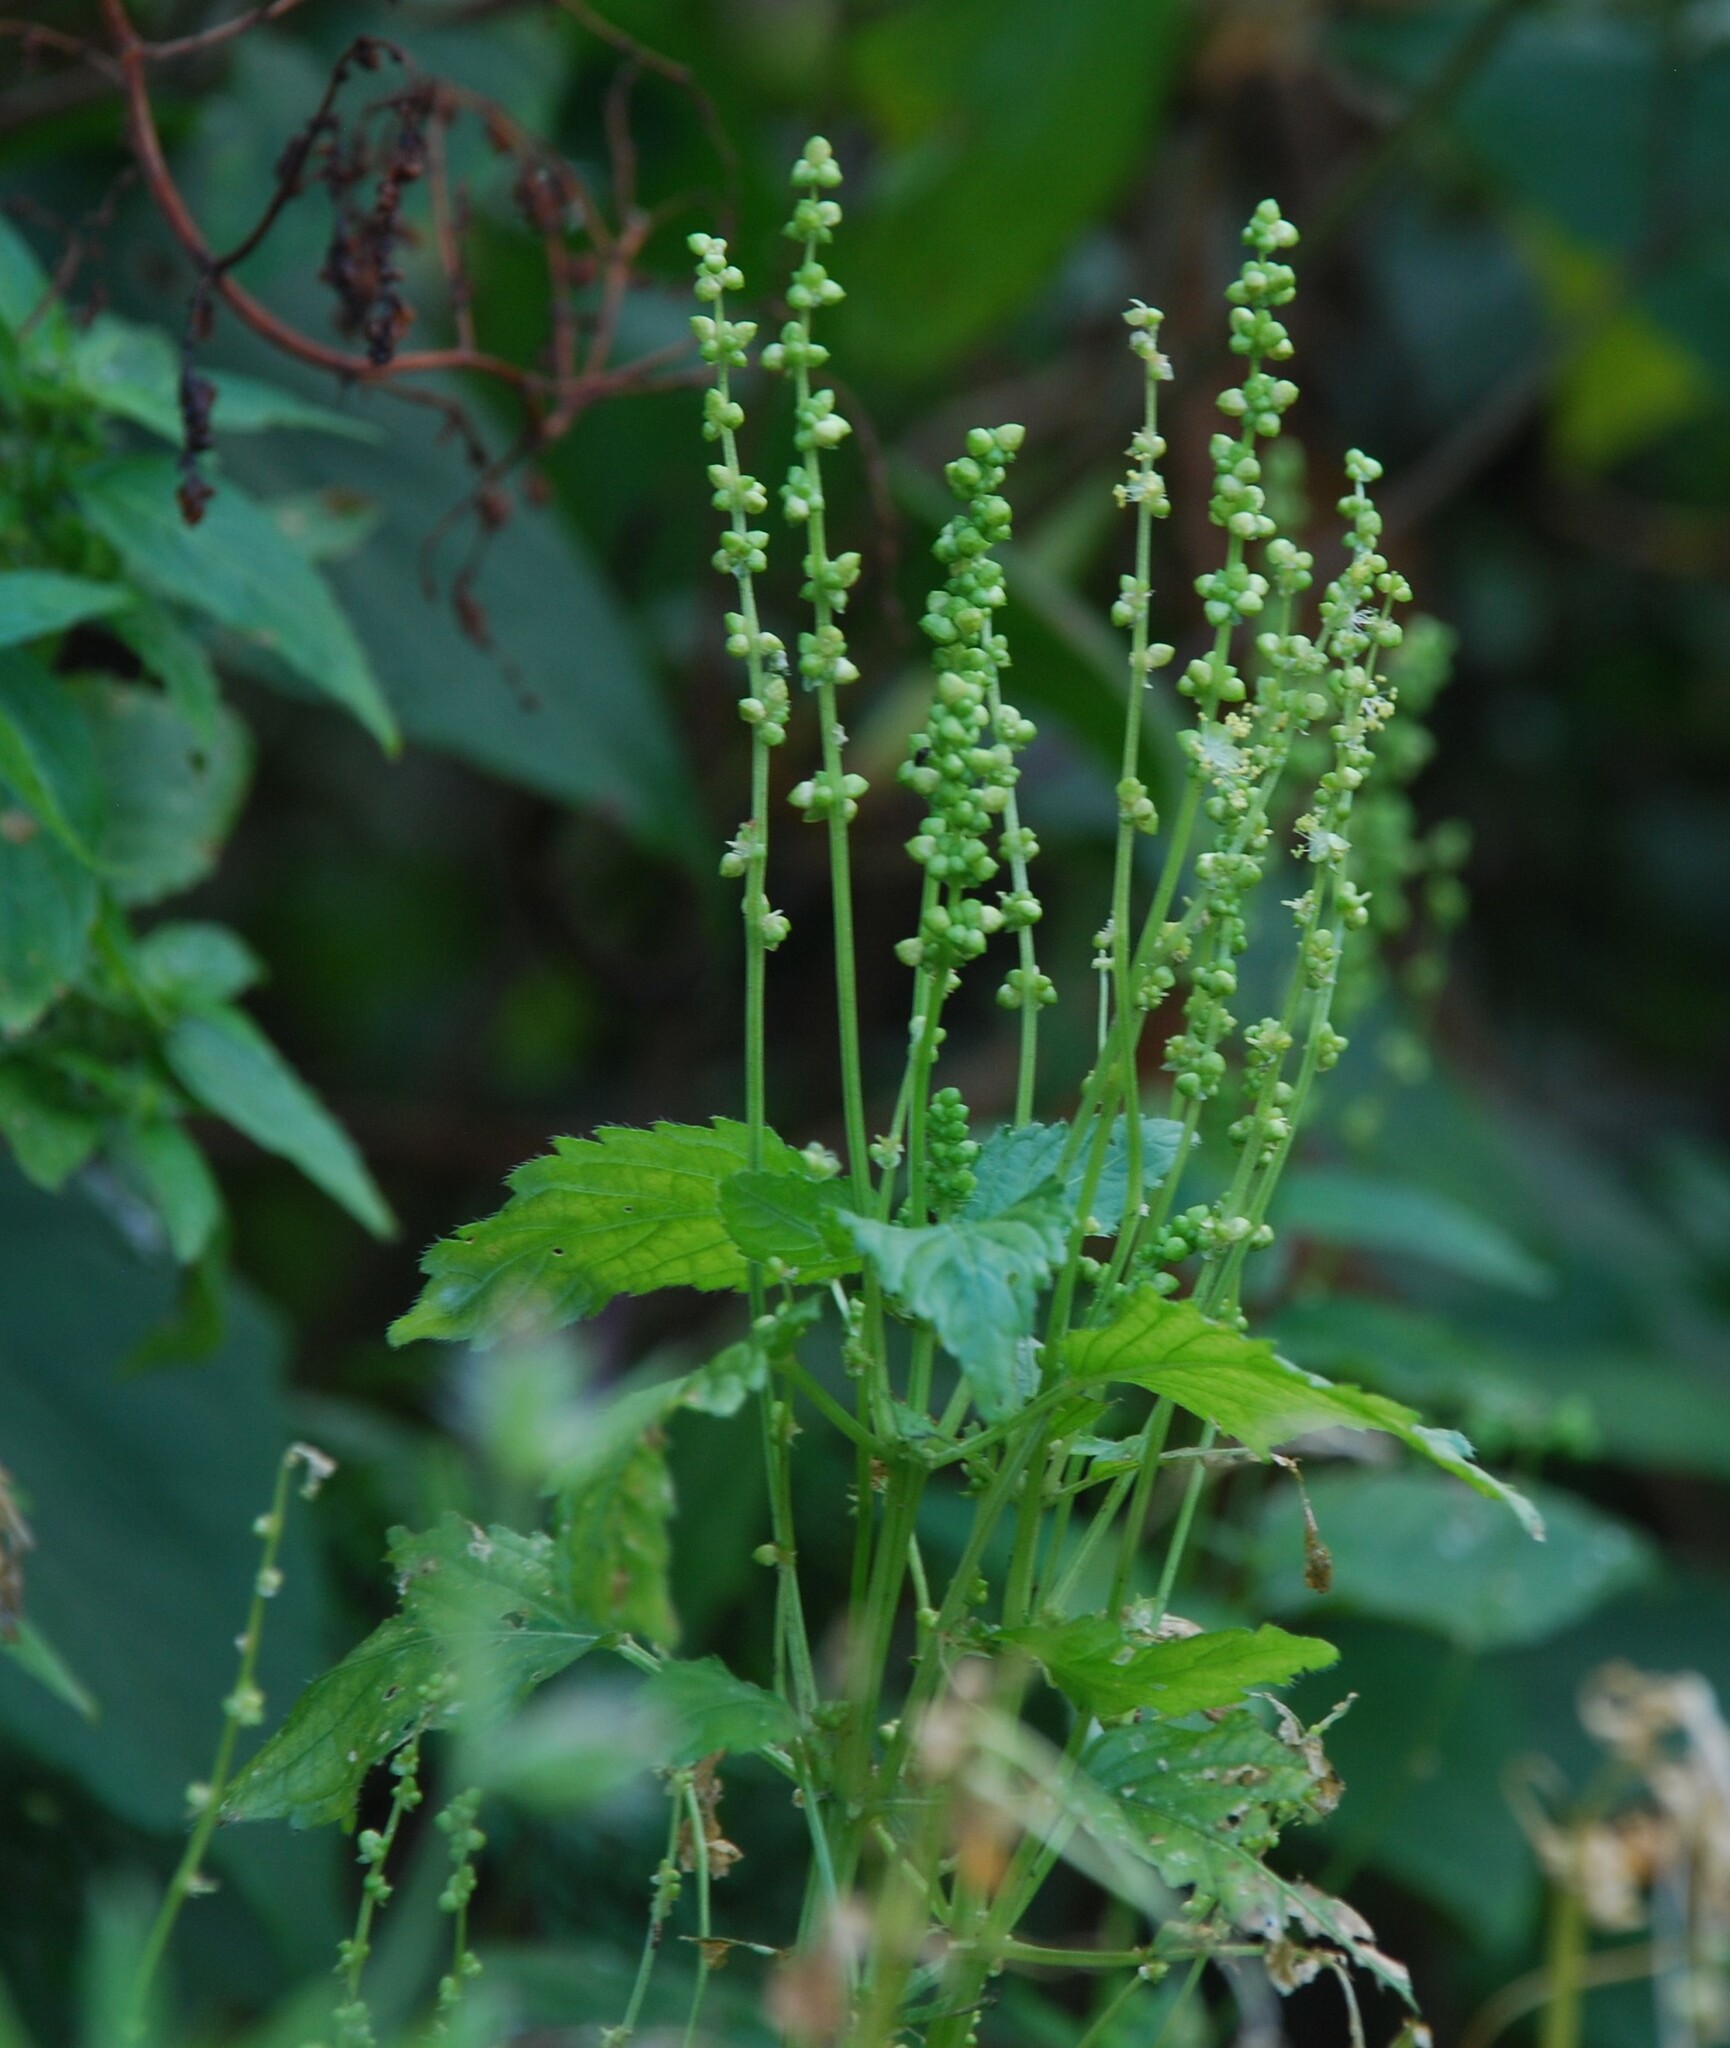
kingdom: Plantae
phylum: Tracheophyta
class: Magnoliopsida
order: Malpighiales
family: Euphorbiaceae
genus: Mercurialis
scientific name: Mercurialis annua
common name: Annual mercury
